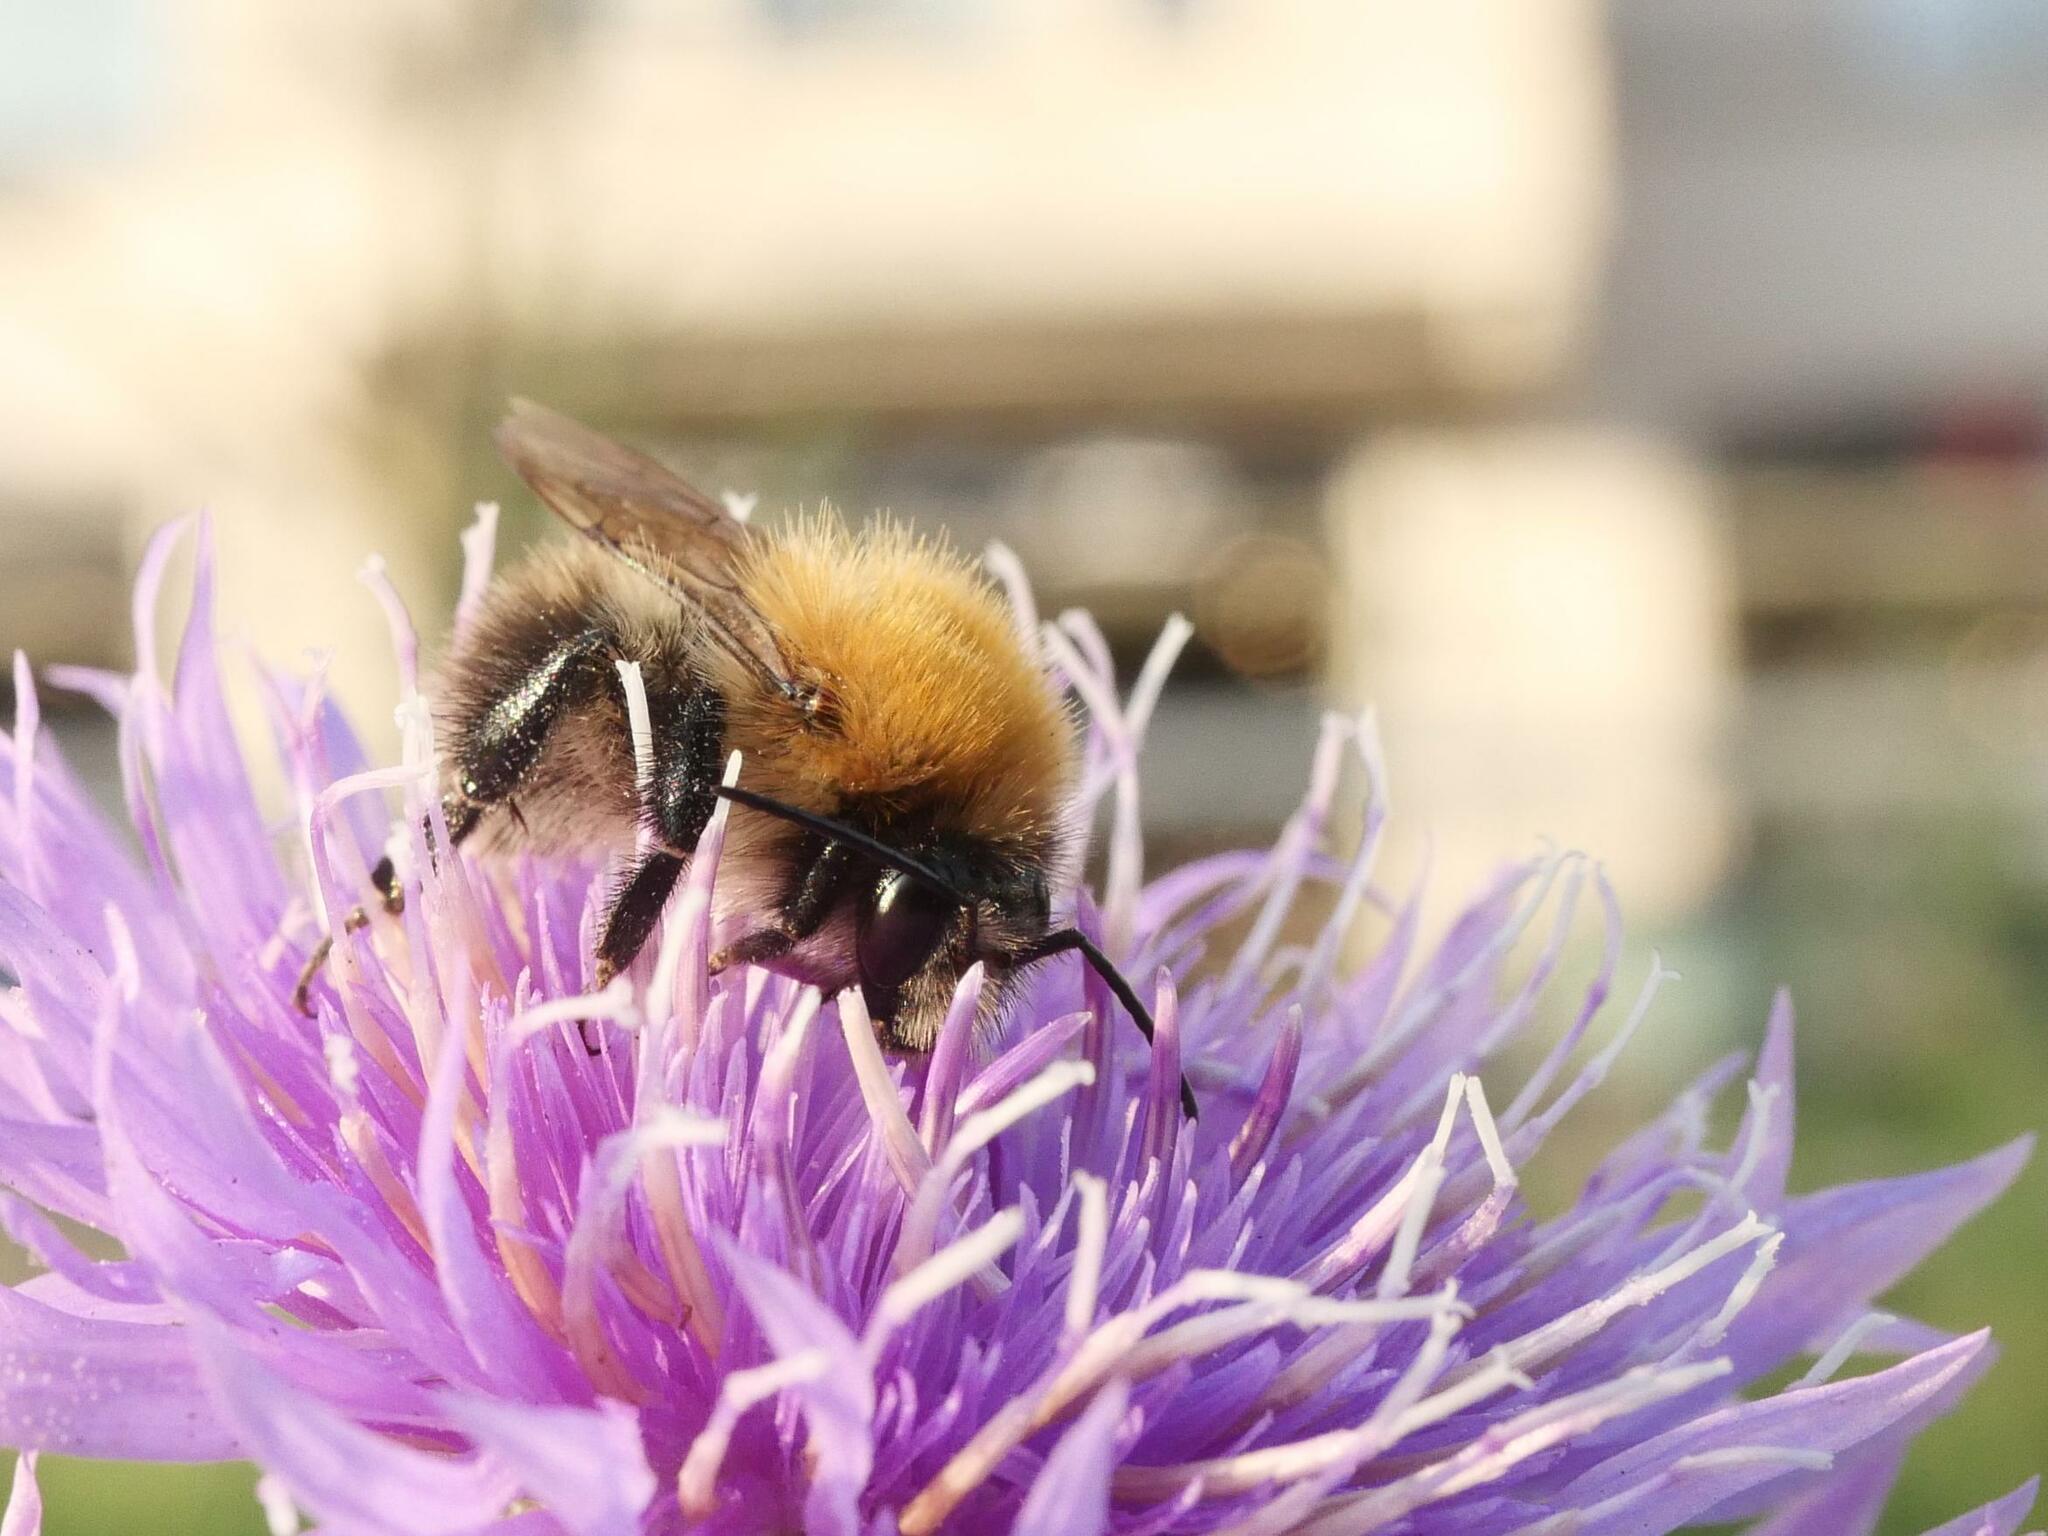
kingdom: Animalia
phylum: Arthropoda
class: Insecta
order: Hymenoptera
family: Apidae
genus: Bombus
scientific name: Bombus pascuorum
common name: Common carder bee
